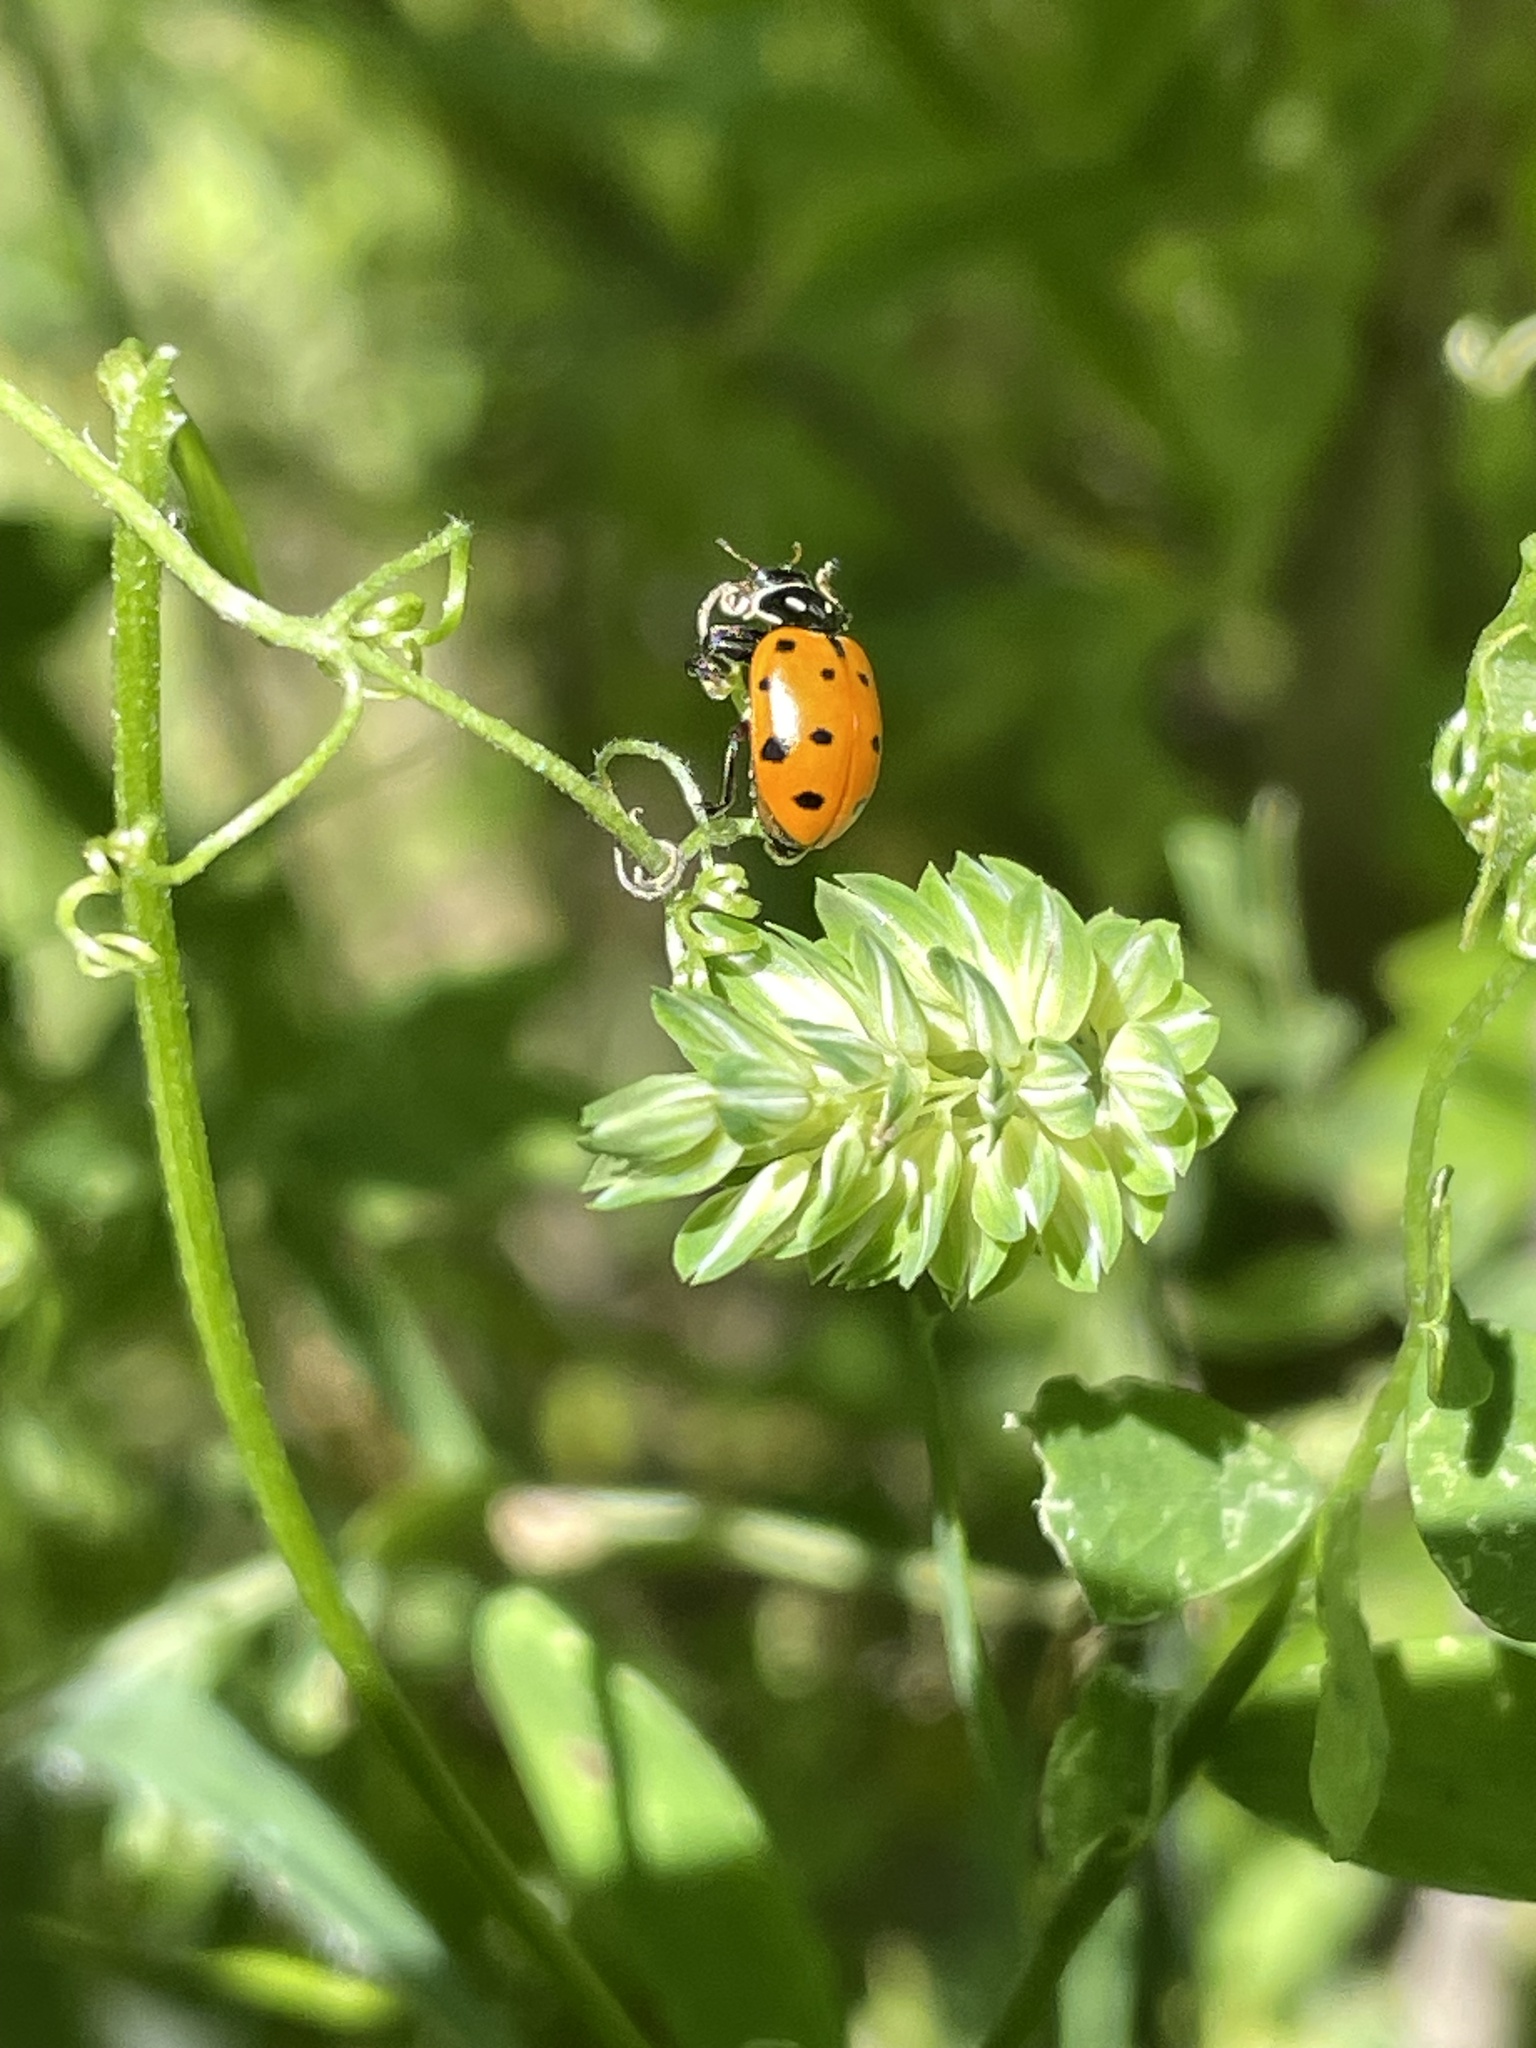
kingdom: Animalia
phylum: Arthropoda
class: Insecta
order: Coleoptera
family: Coccinellidae
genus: Hippodamia
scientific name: Hippodamia convergens
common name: Convergent lady beetle
